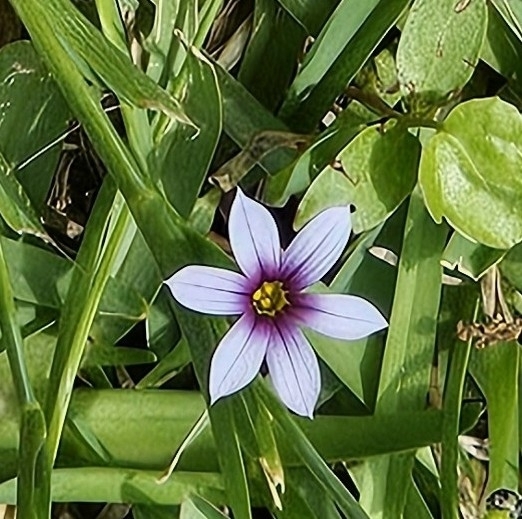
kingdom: Plantae
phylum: Tracheophyta
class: Liliopsida
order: Asparagales
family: Iridaceae
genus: Sisyrinchium
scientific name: Sisyrinchium micranthum
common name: Bermuda pigroot
